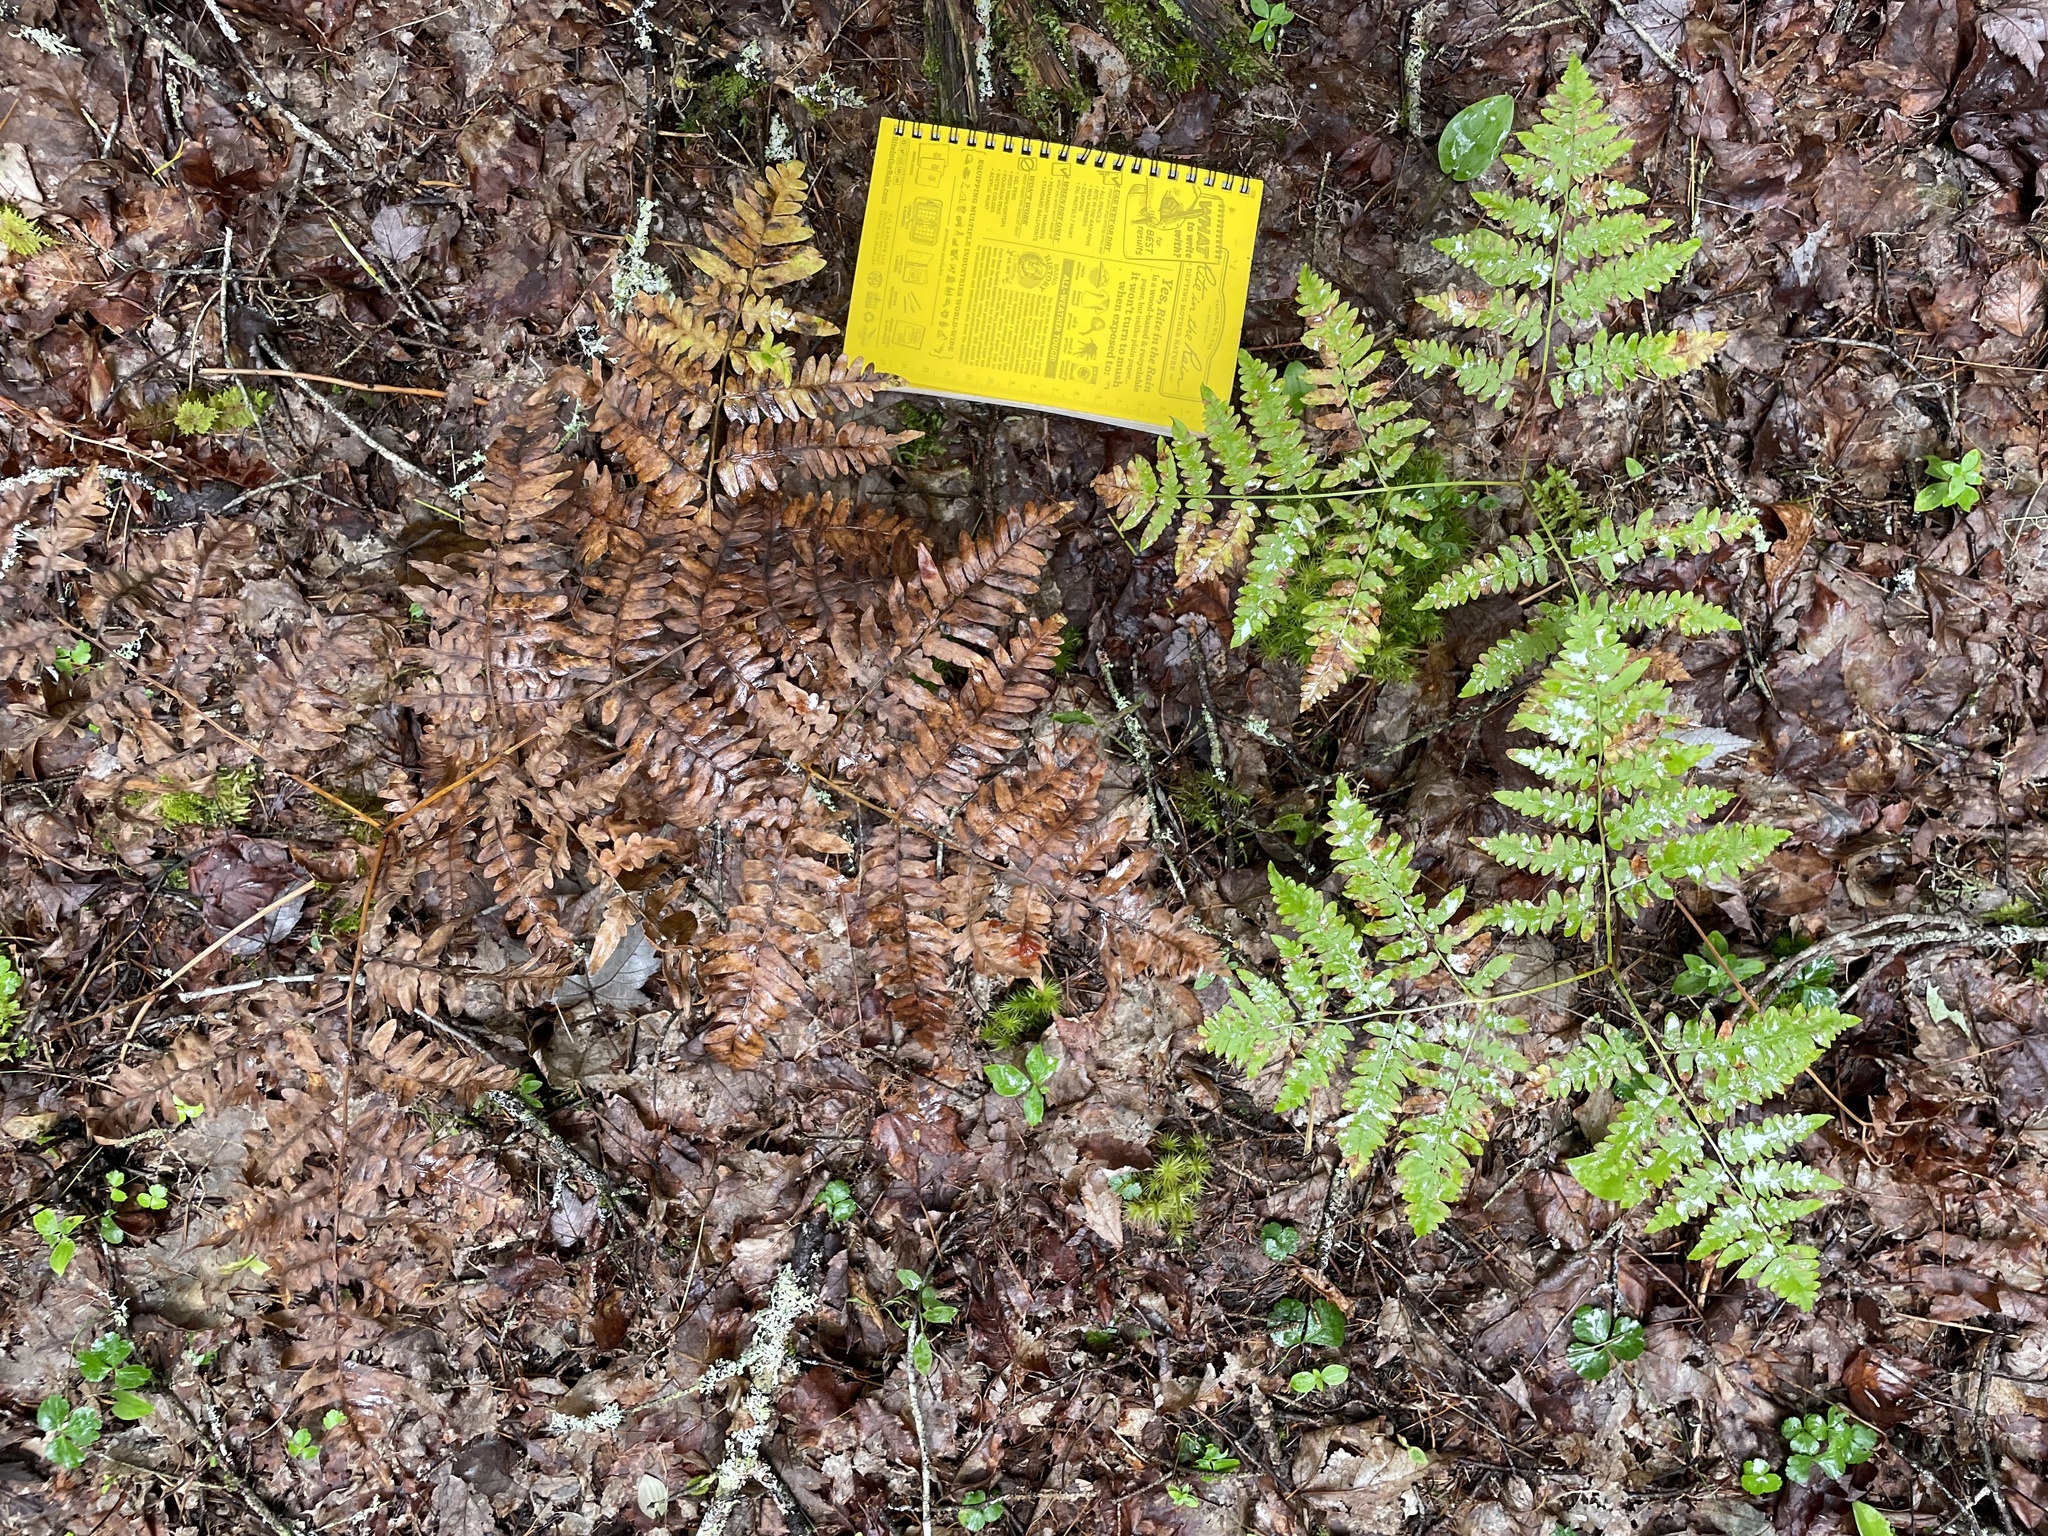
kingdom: Plantae
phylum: Tracheophyta
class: Polypodiopsida
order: Polypodiales
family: Dennstaedtiaceae
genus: Pteridium
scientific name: Pteridium aquilinum
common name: Bracken
